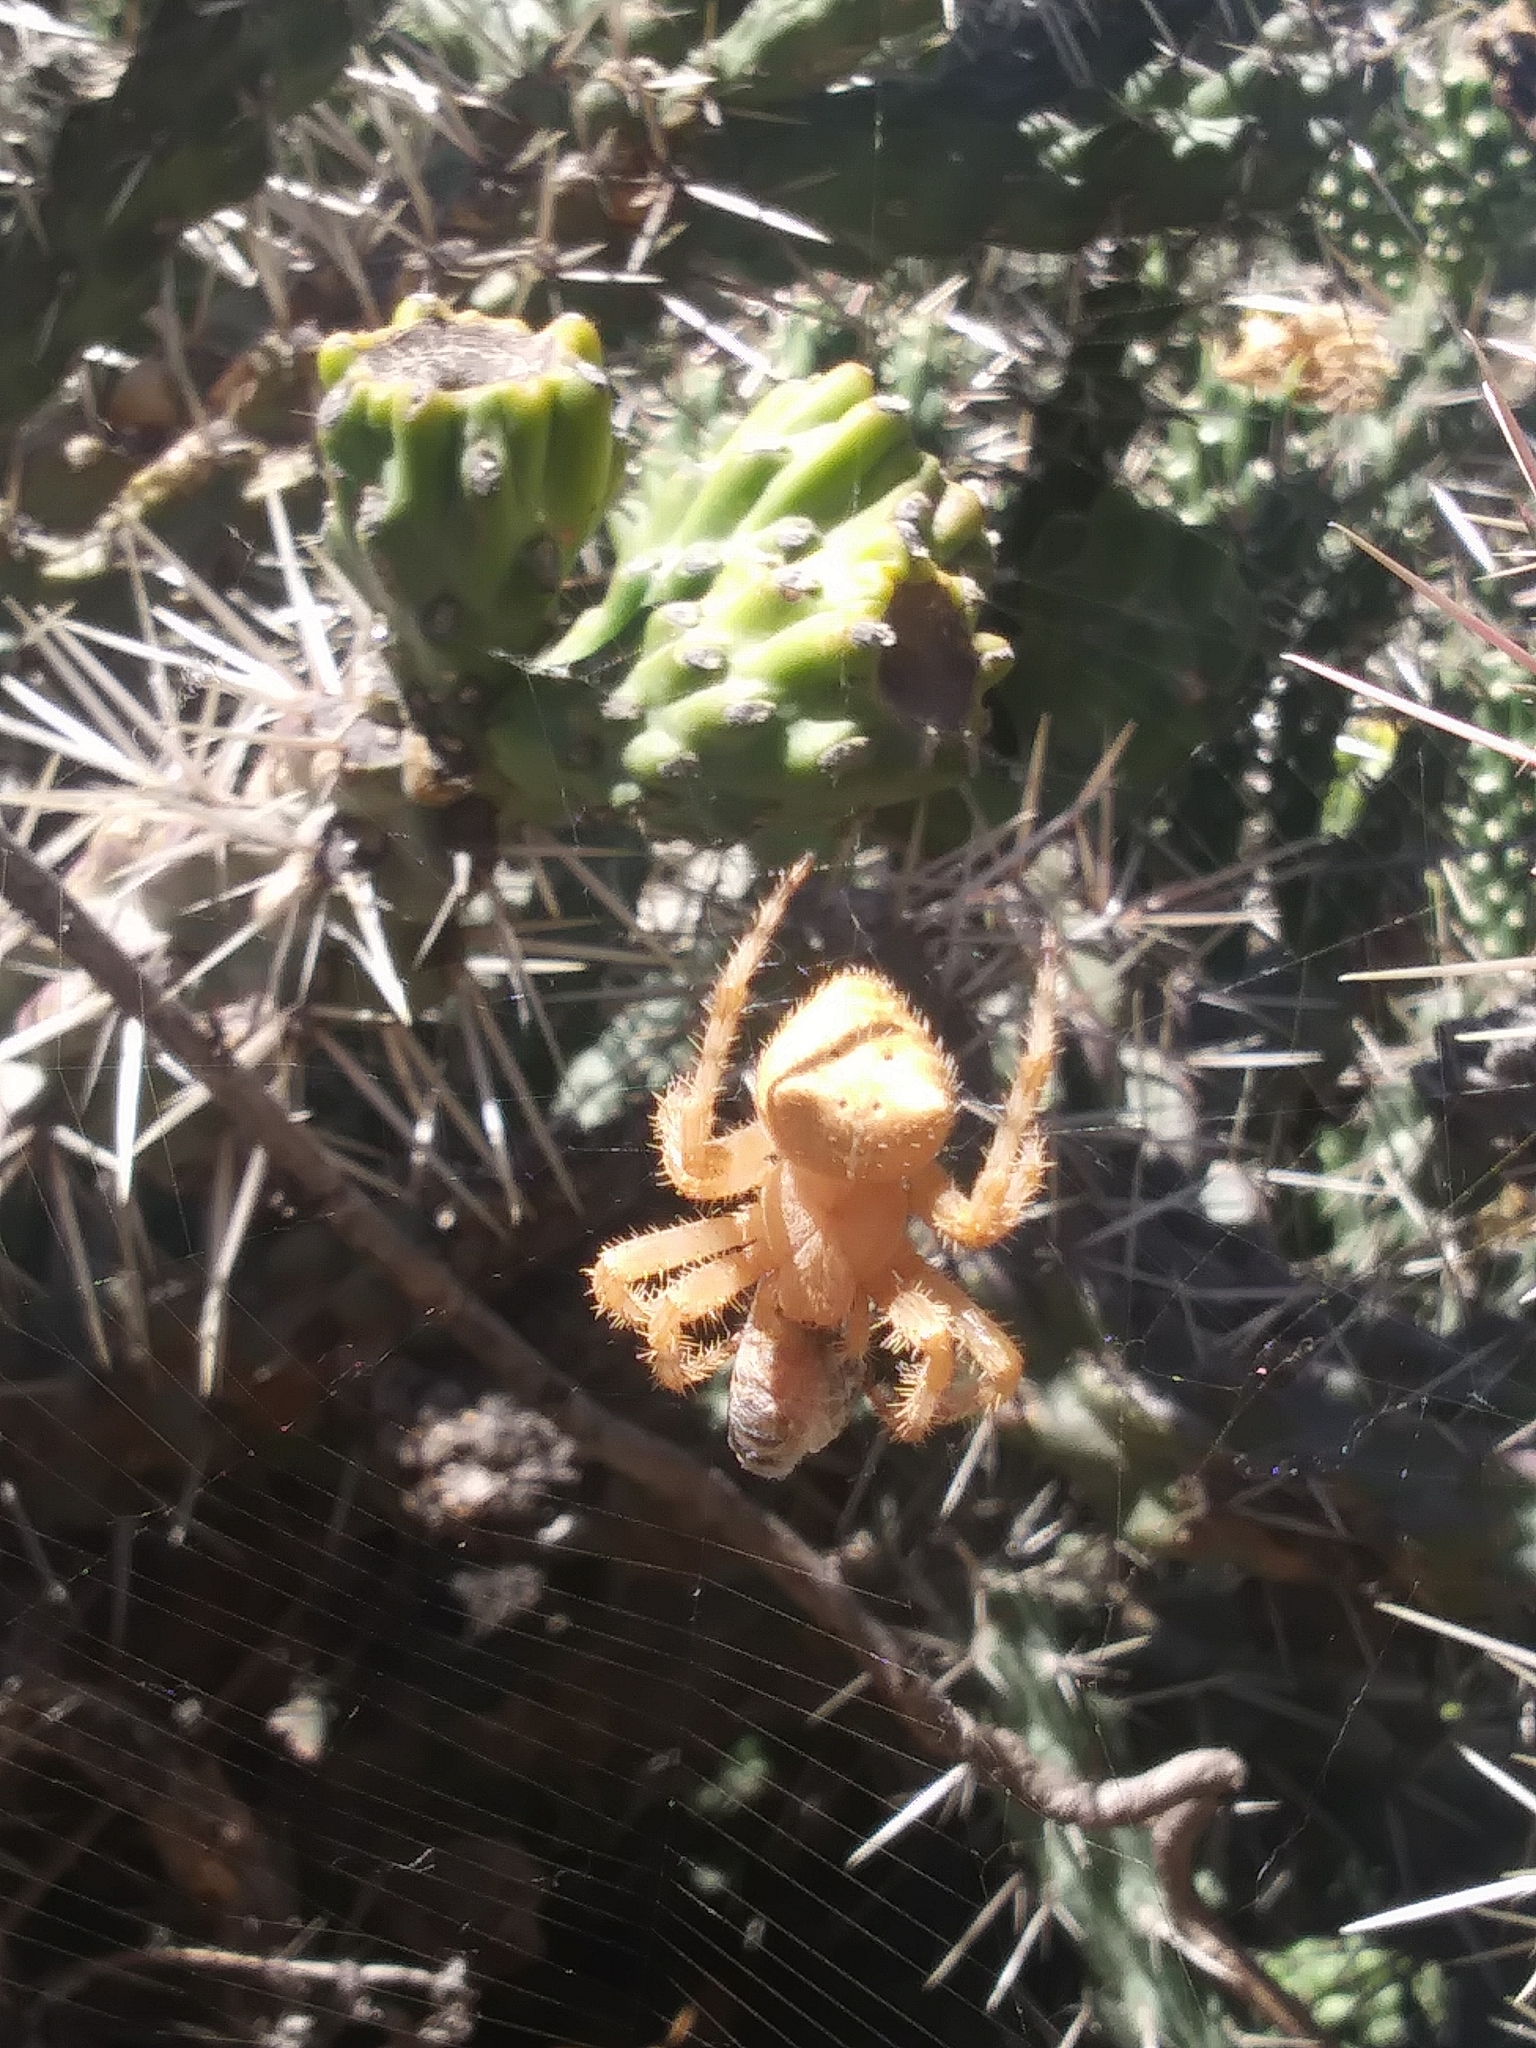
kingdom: Animalia
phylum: Arthropoda
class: Arachnida
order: Araneae
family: Araneidae
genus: Araneus
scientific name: Araneus gemmoides
